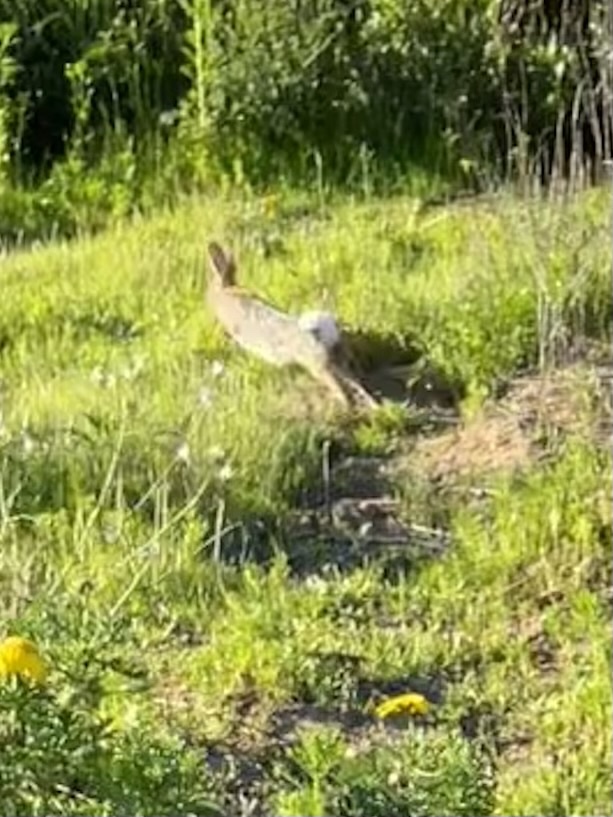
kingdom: Animalia
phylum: Chordata
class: Mammalia
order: Lagomorpha
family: Leporidae
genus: Sylvilagus
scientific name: Sylvilagus audubonii
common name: Desert cottontail
